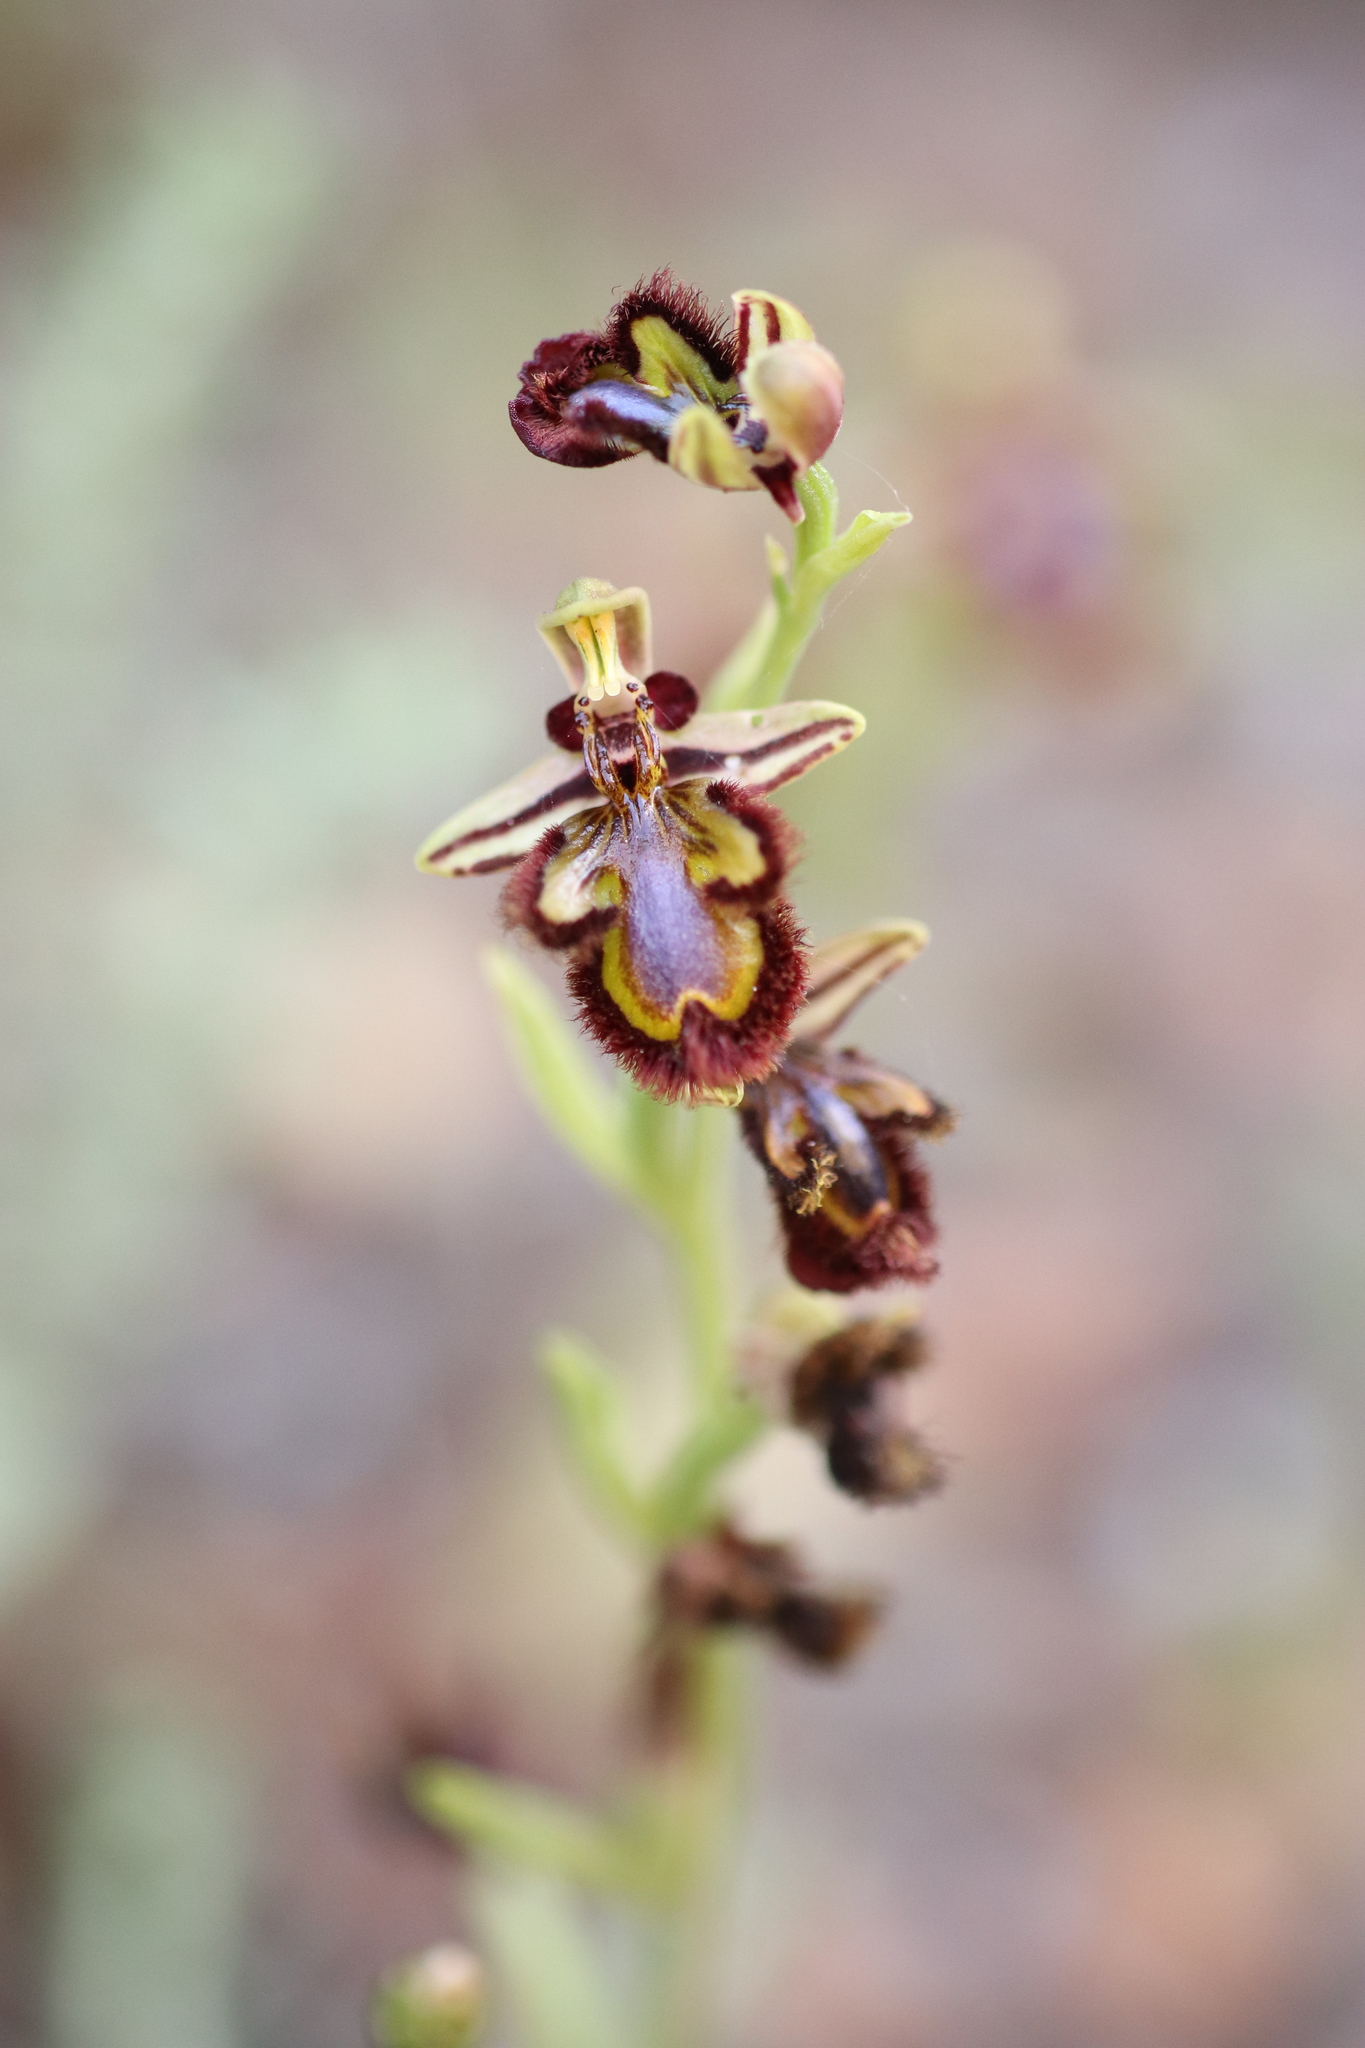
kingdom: Plantae
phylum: Tracheophyta
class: Liliopsida
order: Asparagales
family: Orchidaceae
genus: Ophrys
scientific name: Ophrys speculum
